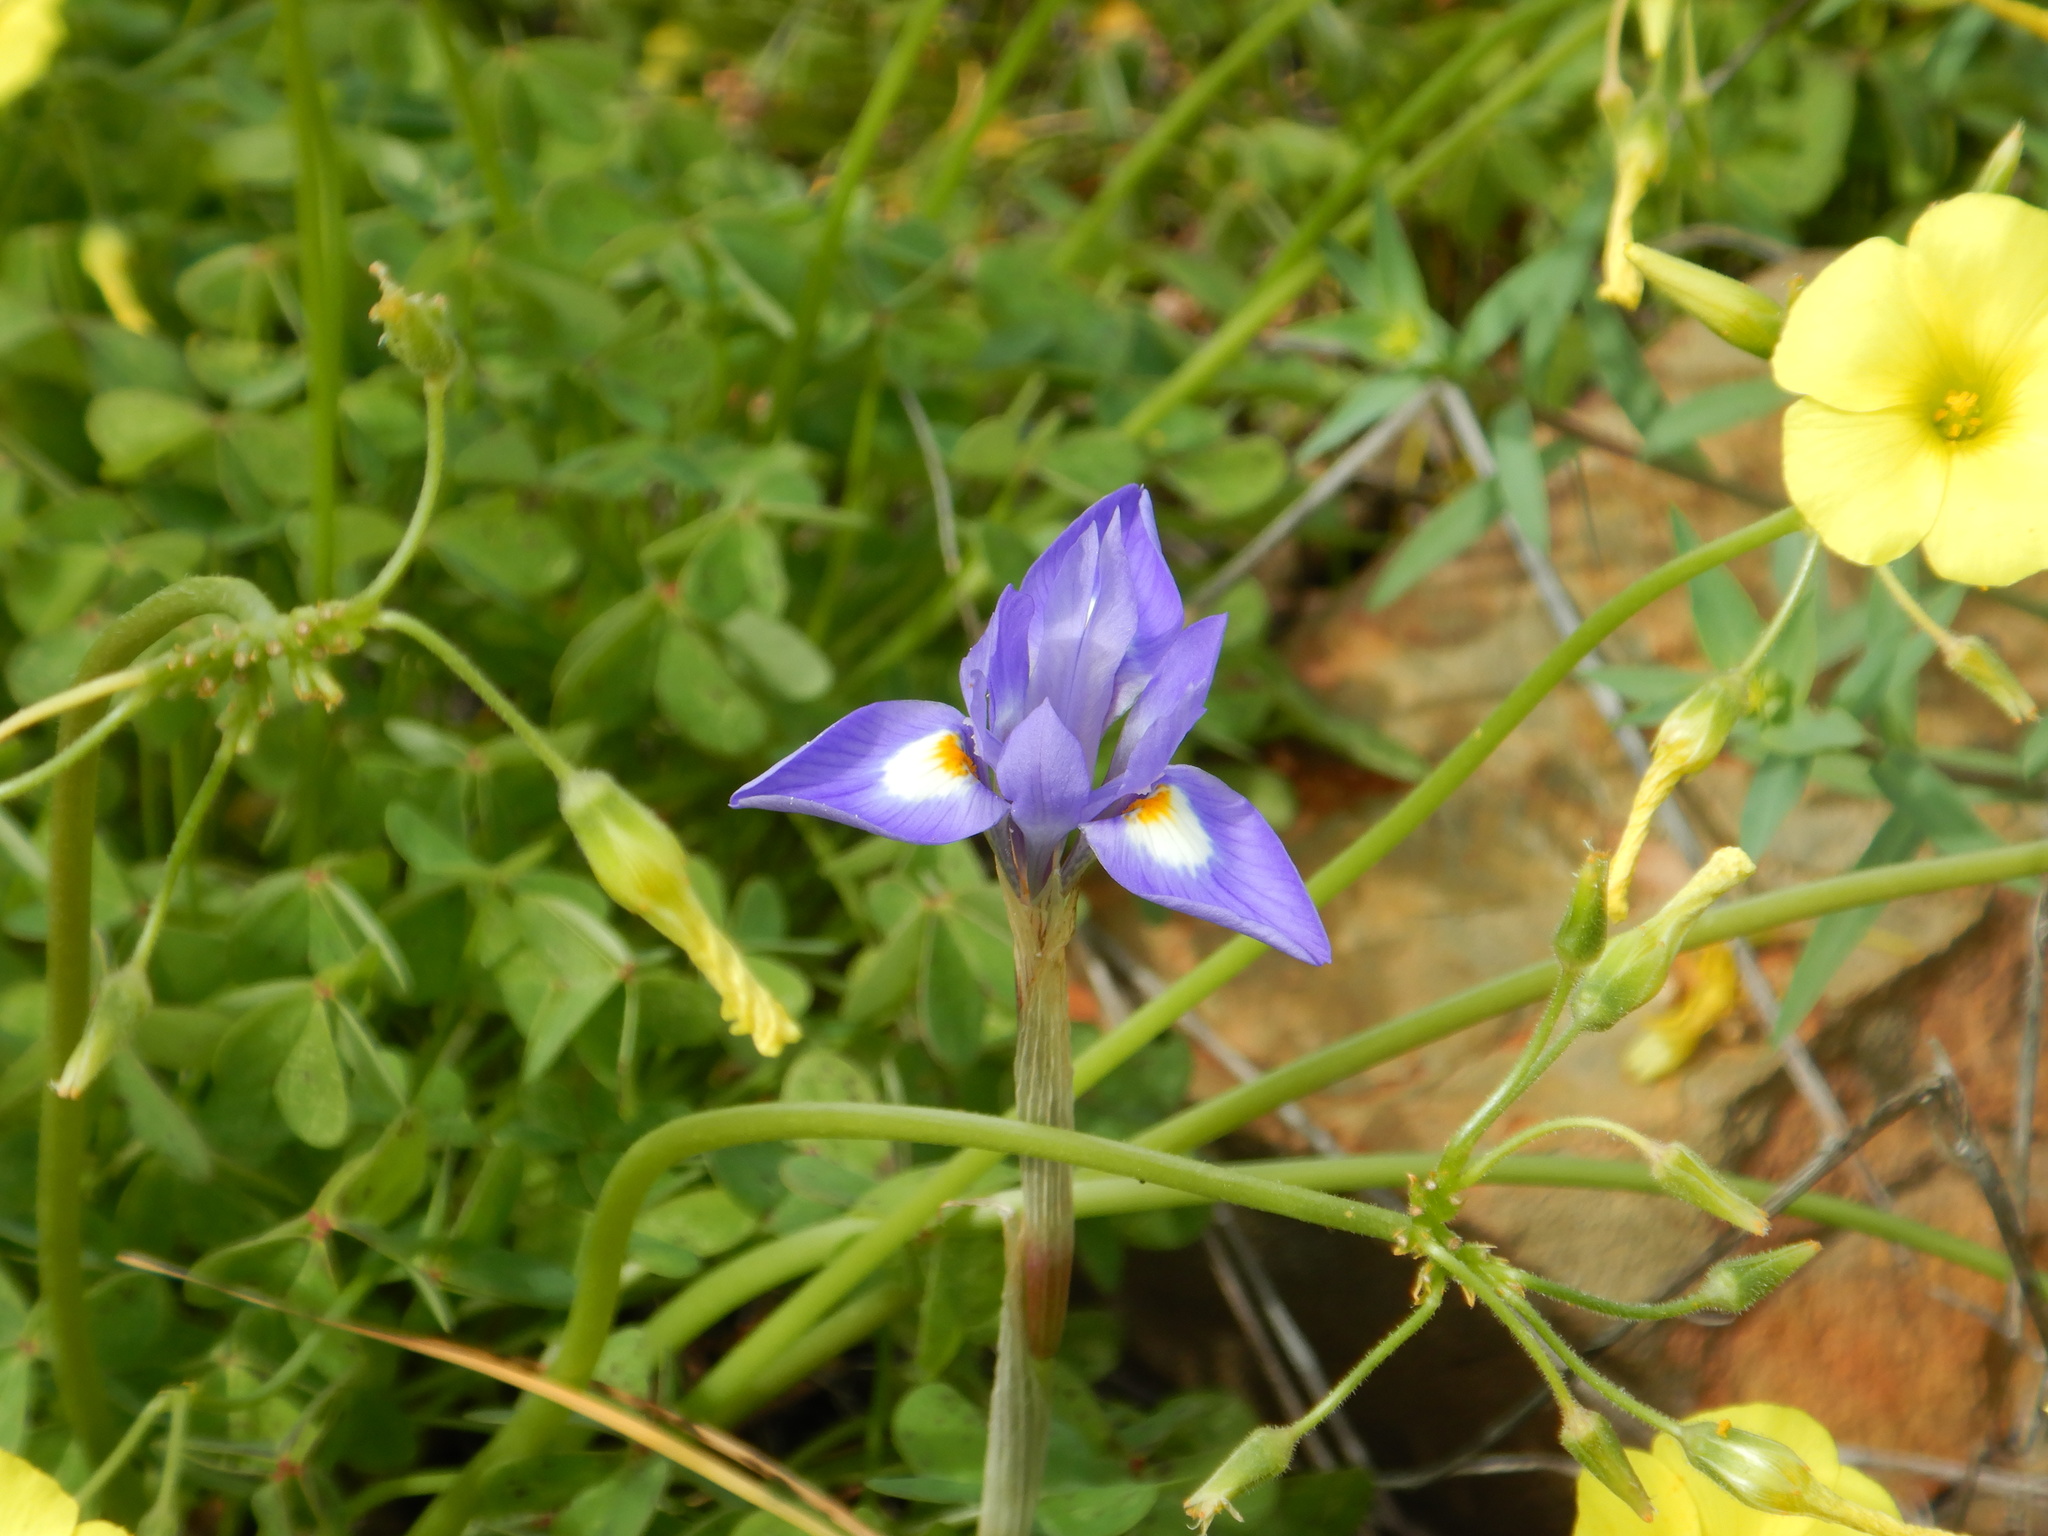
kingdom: Plantae
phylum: Tracheophyta
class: Liliopsida
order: Asparagales
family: Iridaceae
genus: Moraea
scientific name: Moraea sisyrinchium
